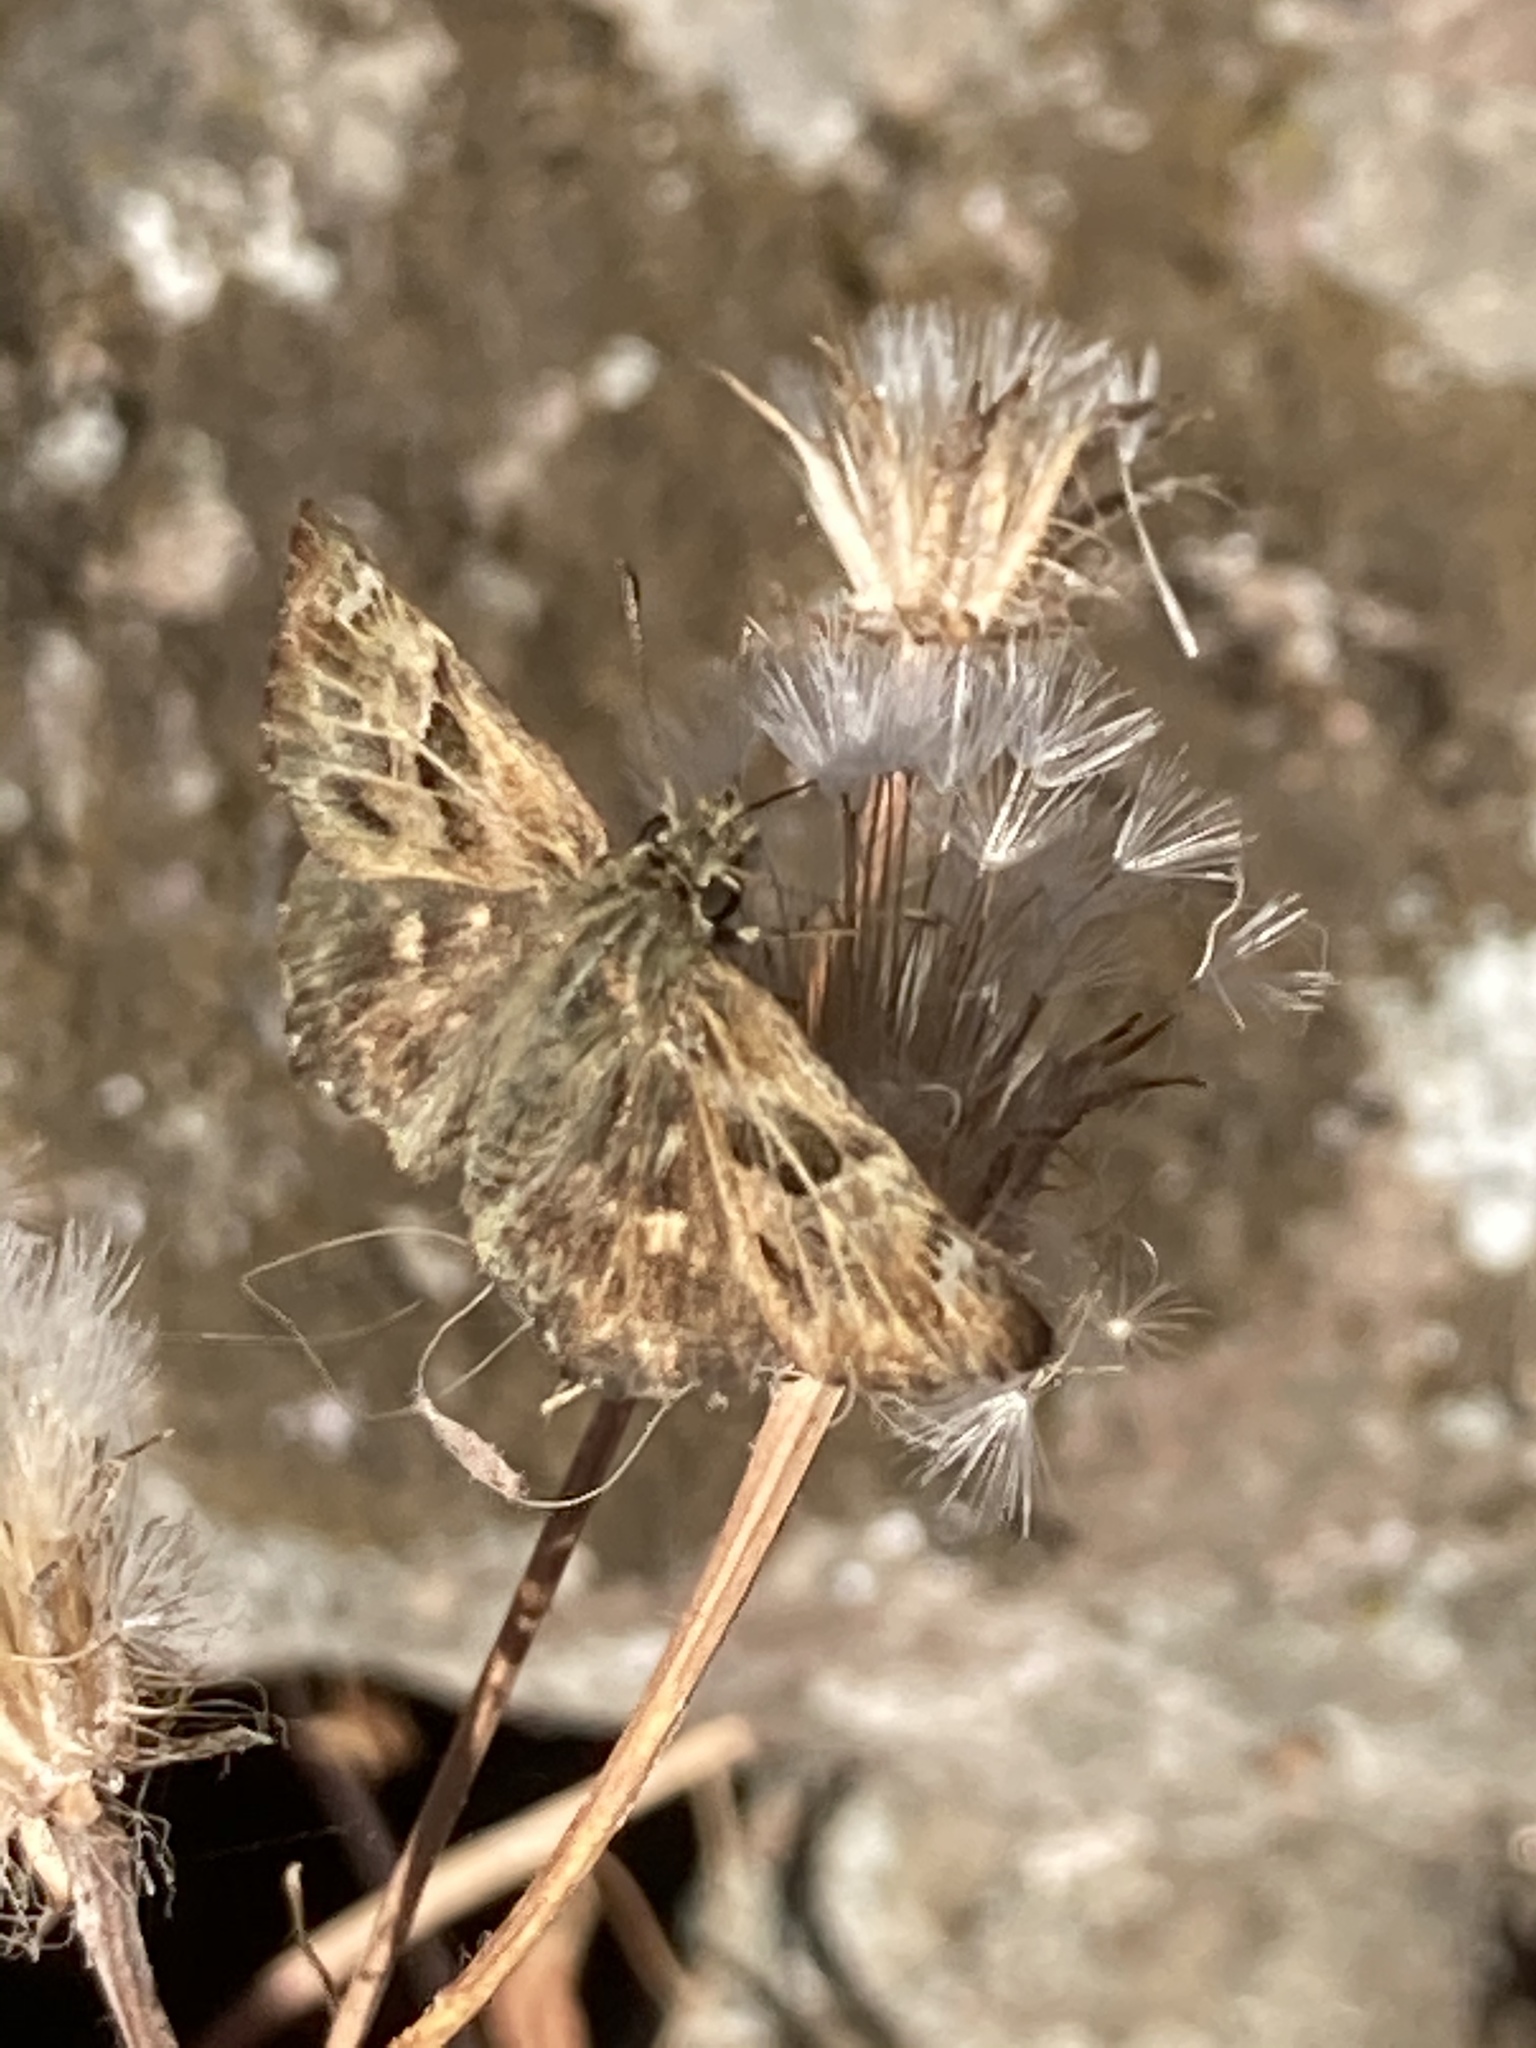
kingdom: Animalia
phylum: Arthropoda
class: Insecta
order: Lepidoptera
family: Hesperiidae
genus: Carcharodus
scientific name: Carcharodus alceae
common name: Mallow skipper
